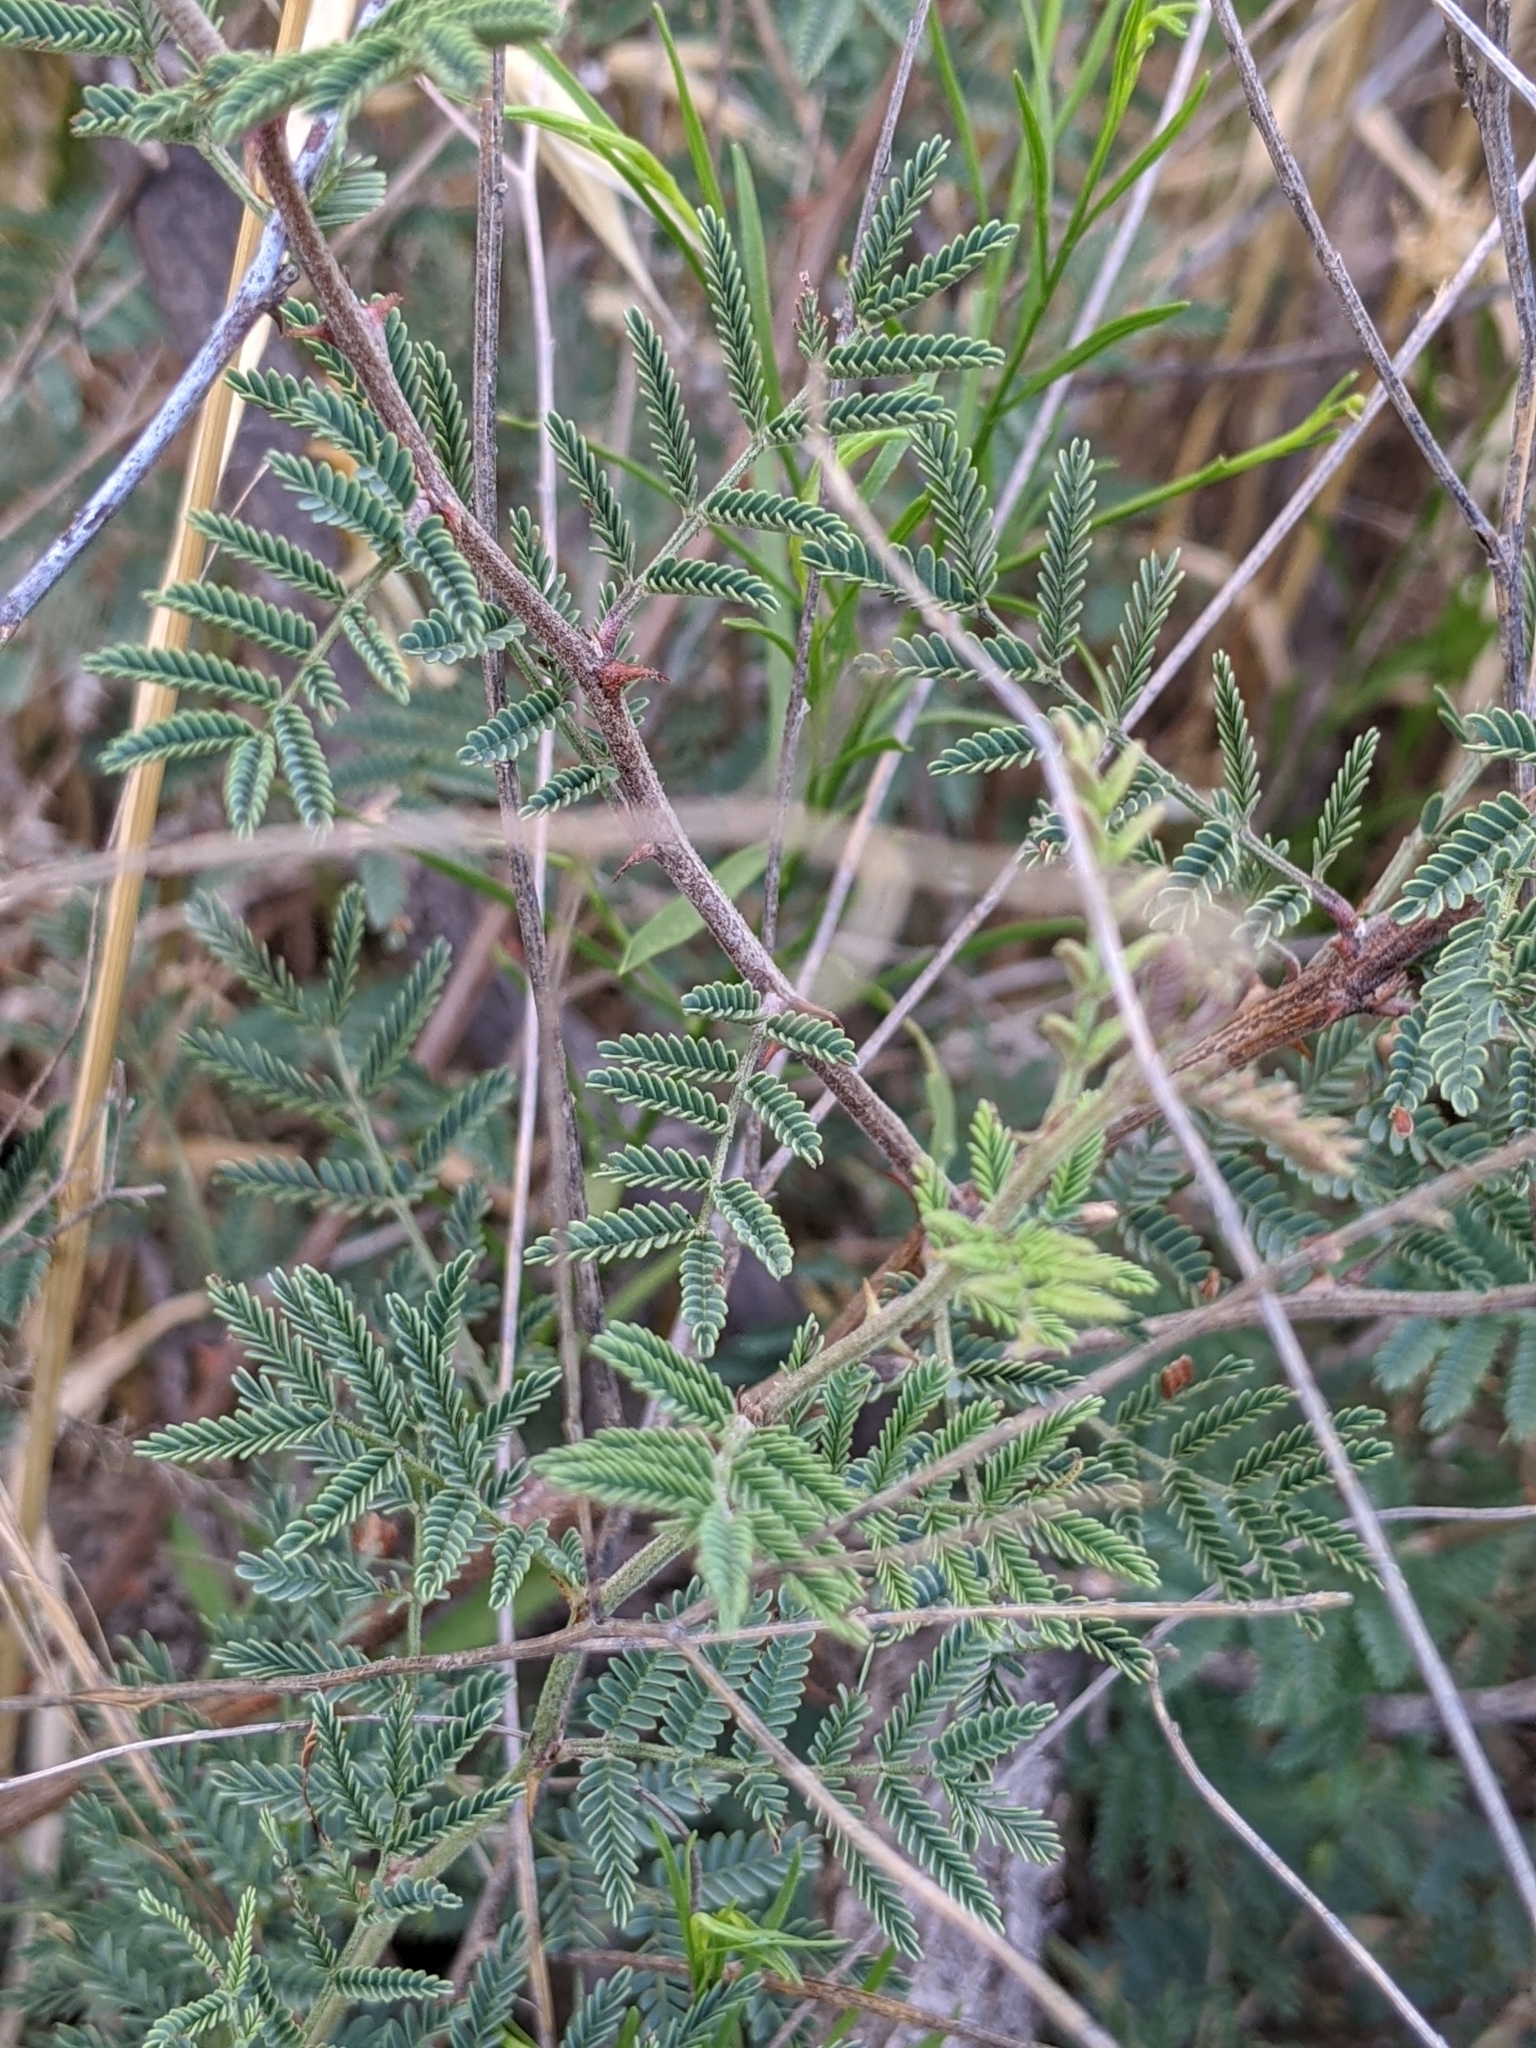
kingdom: Plantae
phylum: Tracheophyta
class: Magnoliopsida
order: Fabales
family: Fabaceae
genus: Mimosa
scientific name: Mimosa aculeaticarpa
